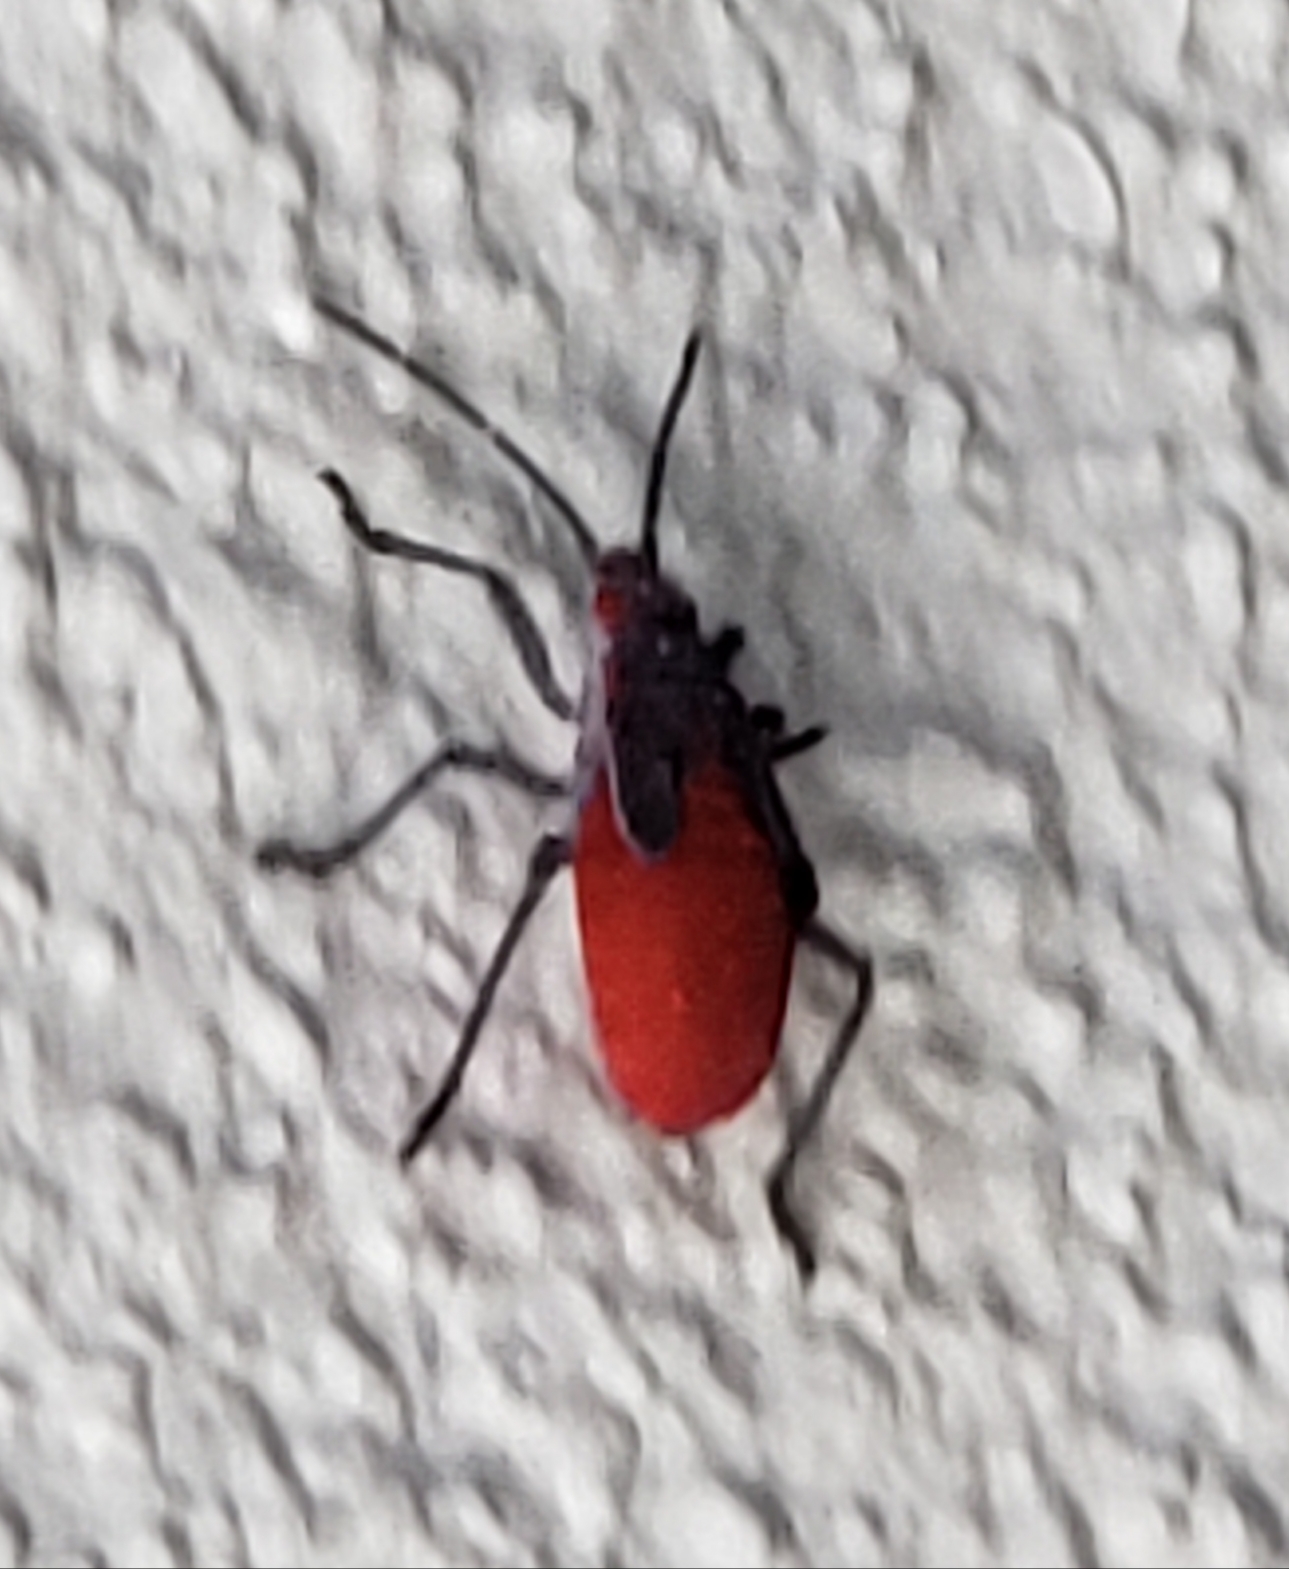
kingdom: Animalia
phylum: Arthropoda
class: Insecta
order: Hemiptera
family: Rhopalidae
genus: Jadera
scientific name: Jadera haematoloma
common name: Red-shouldered bug
